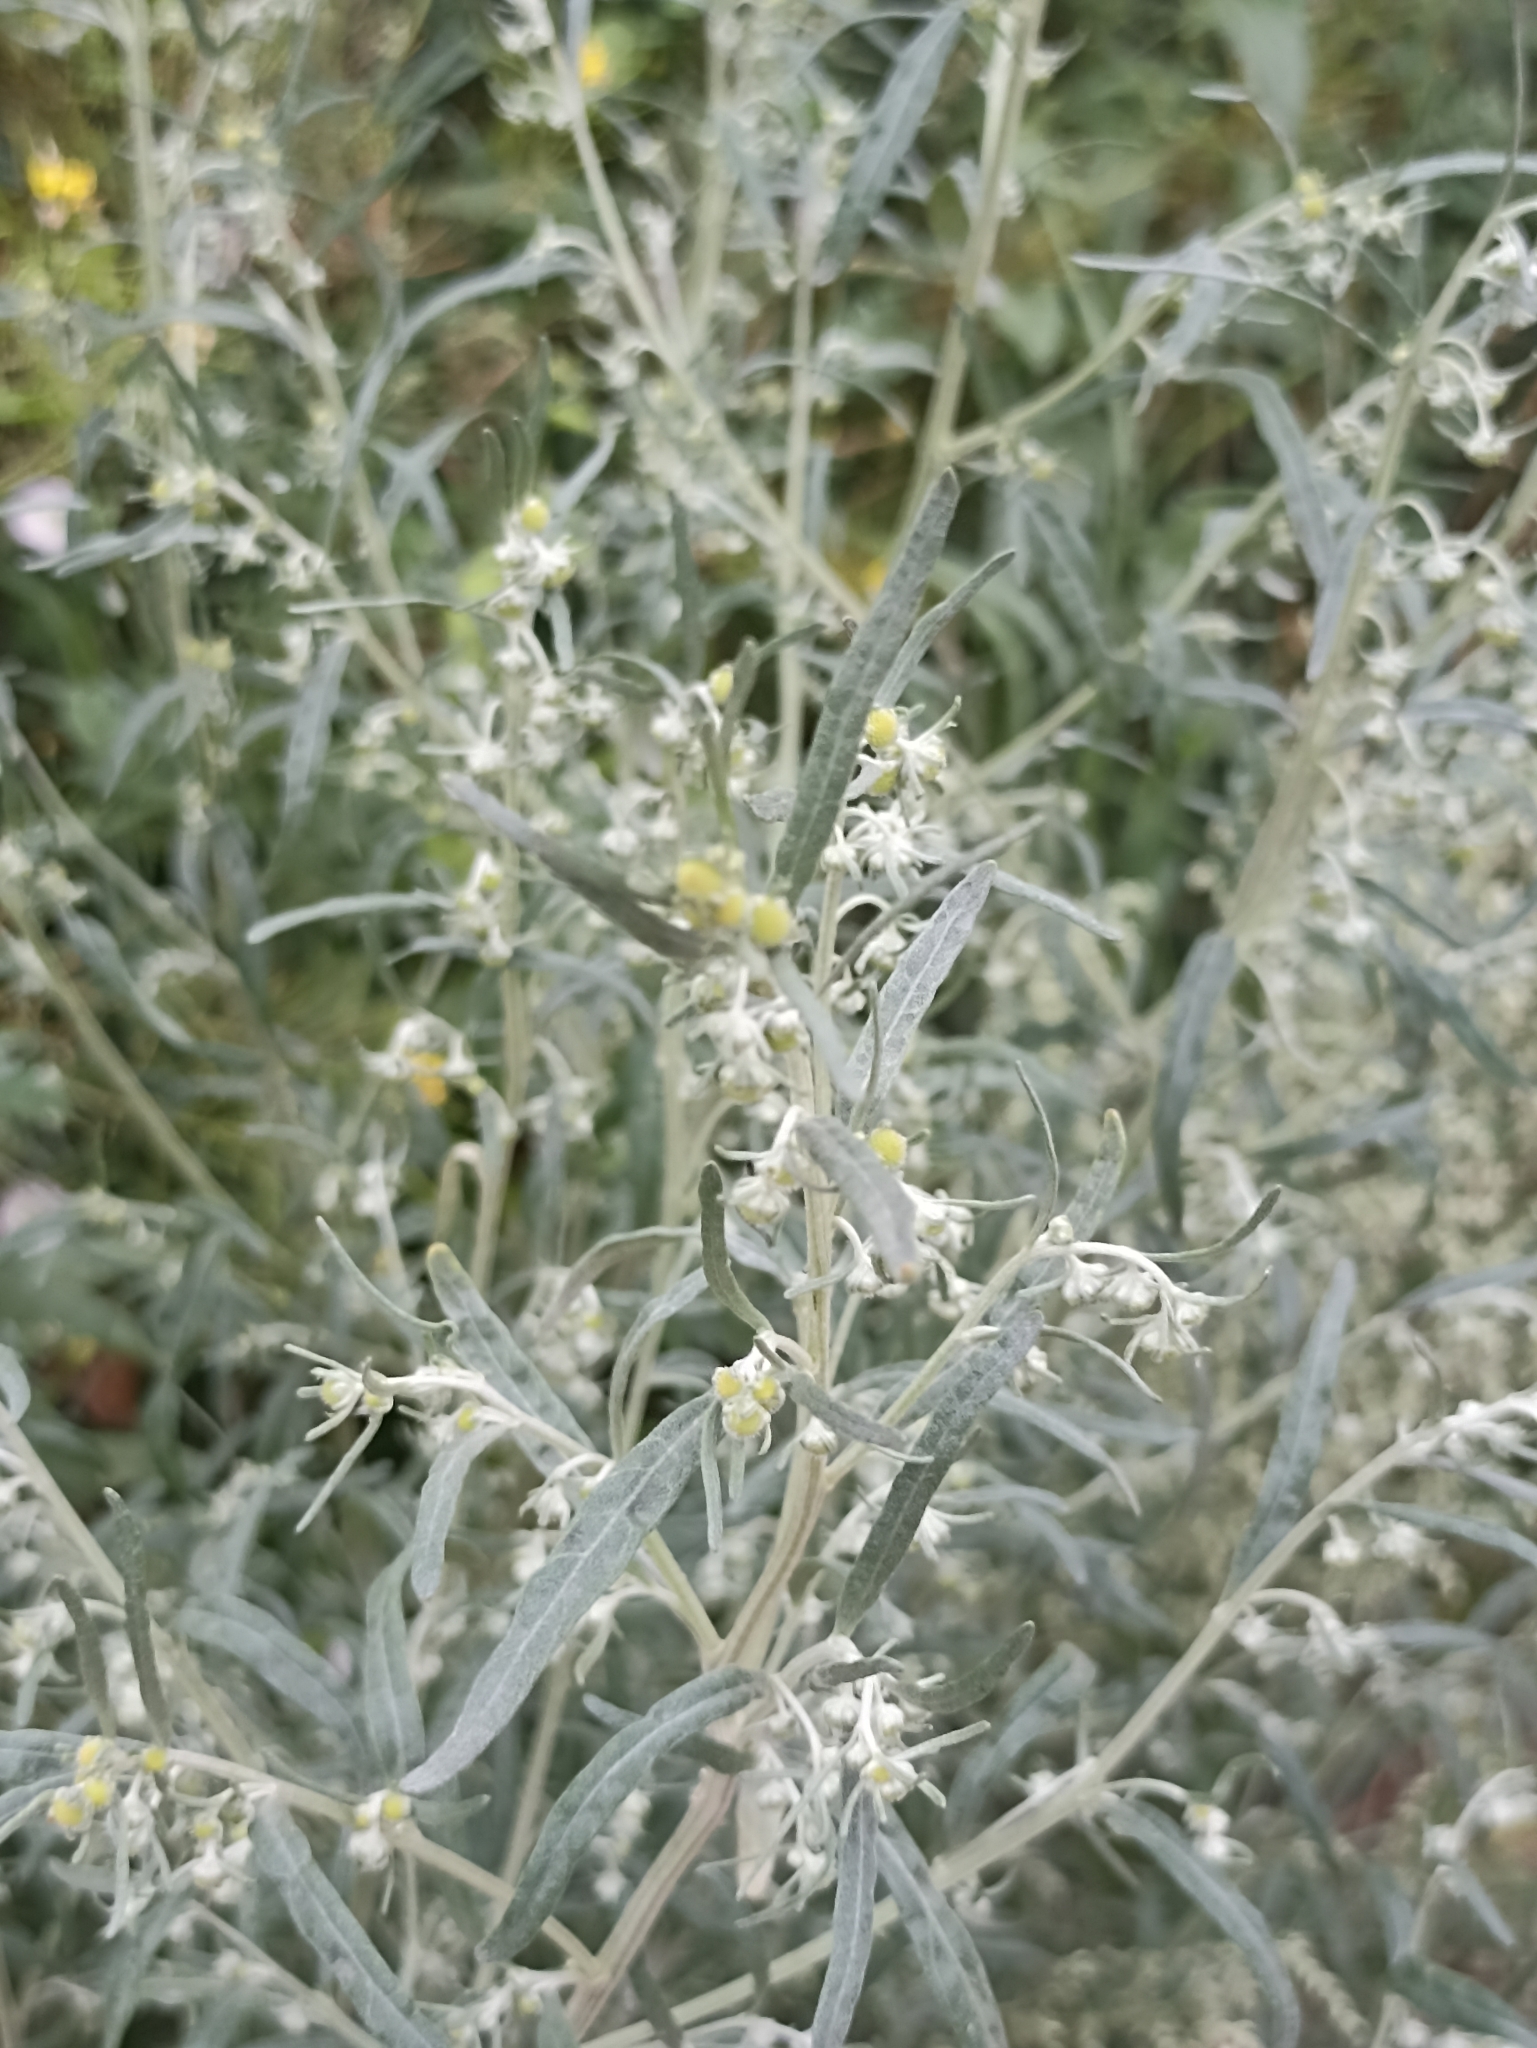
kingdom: Plantae
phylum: Tracheophyta
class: Magnoliopsida
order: Asterales
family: Asteraceae
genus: Artemisia
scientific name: Artemisia sieversiana
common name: Sieversian wormwood
